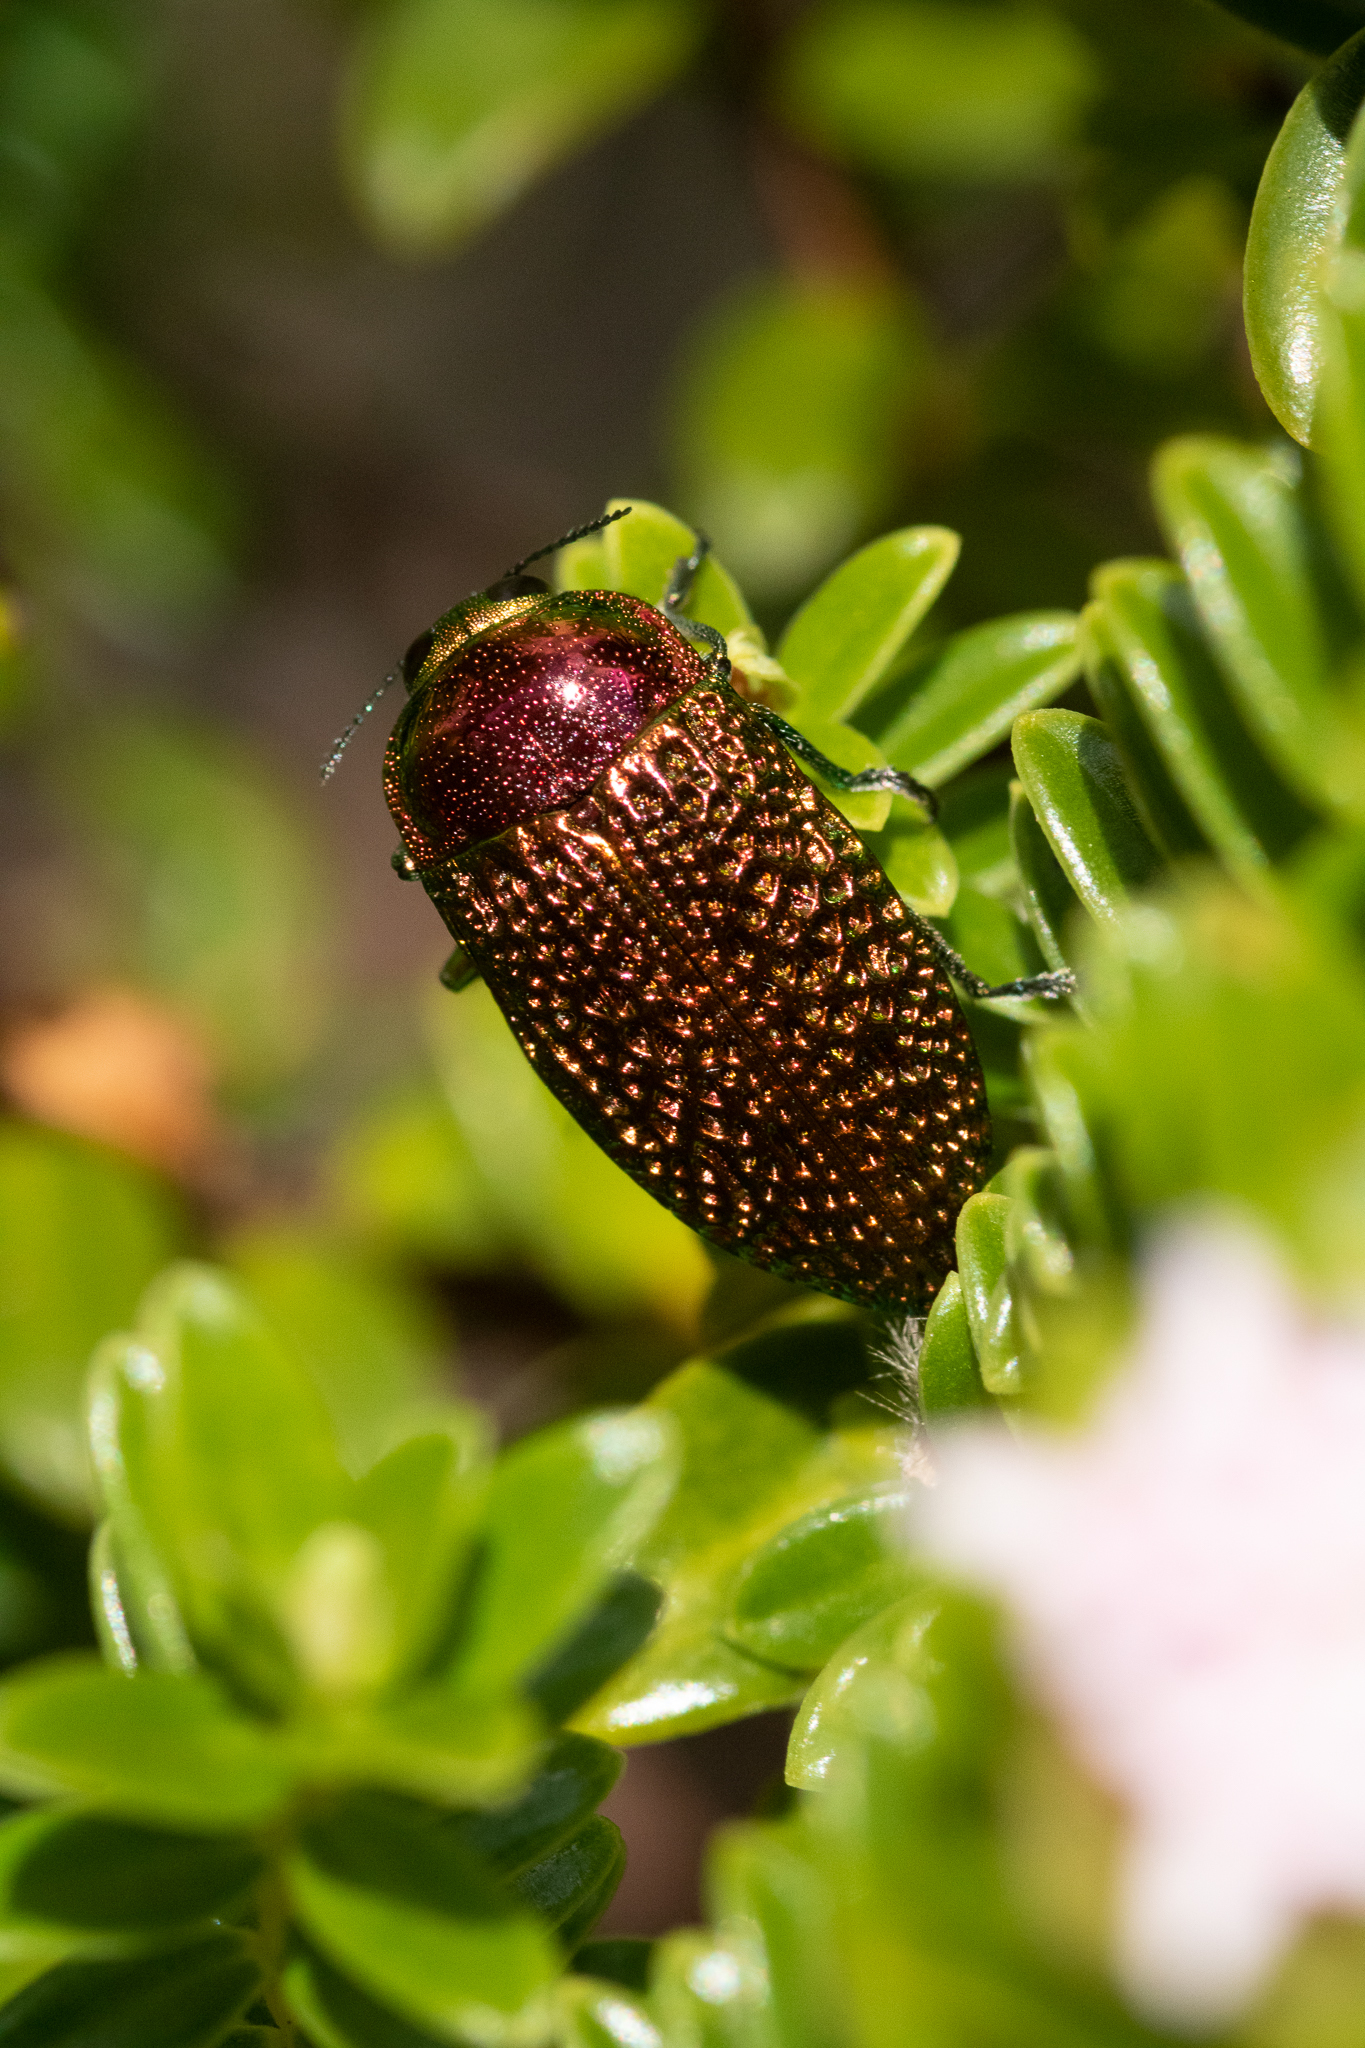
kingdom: Animalia
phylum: Arthropoda
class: Insecta
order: Coleoptera
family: Buprestidae
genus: Stigmodera
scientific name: Stigmodera gratiosa
